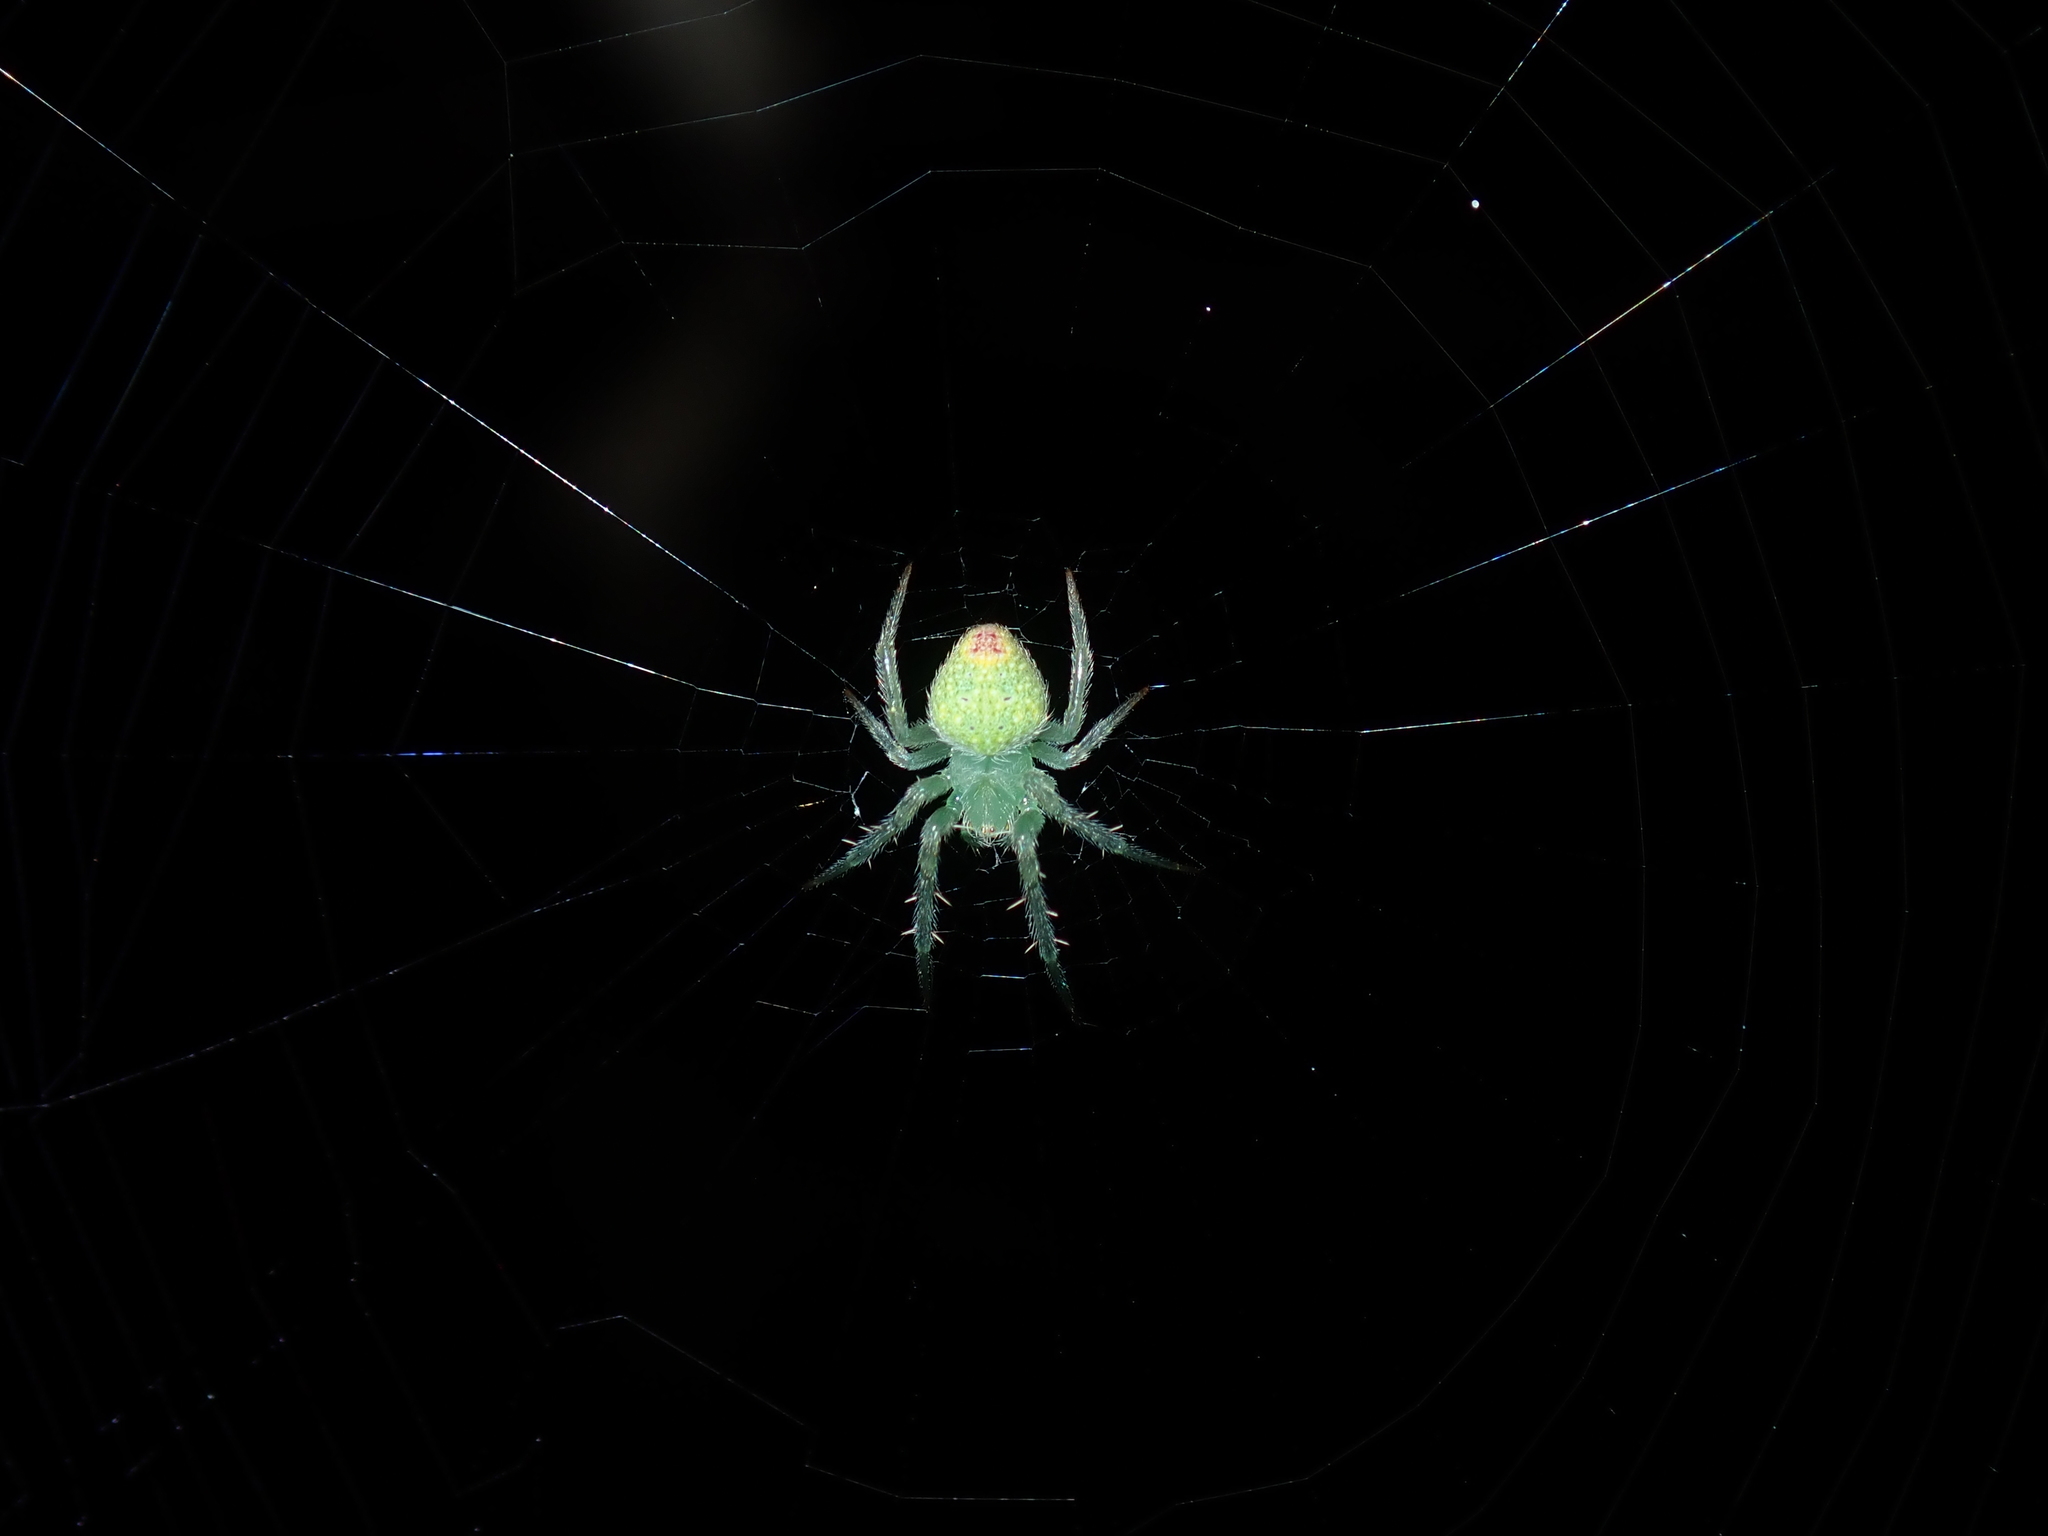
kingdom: Animalia
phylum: Arthropoda
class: Arachnida
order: Araneae
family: Araneidae
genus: Araneus
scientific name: Araneus circulissparsus
